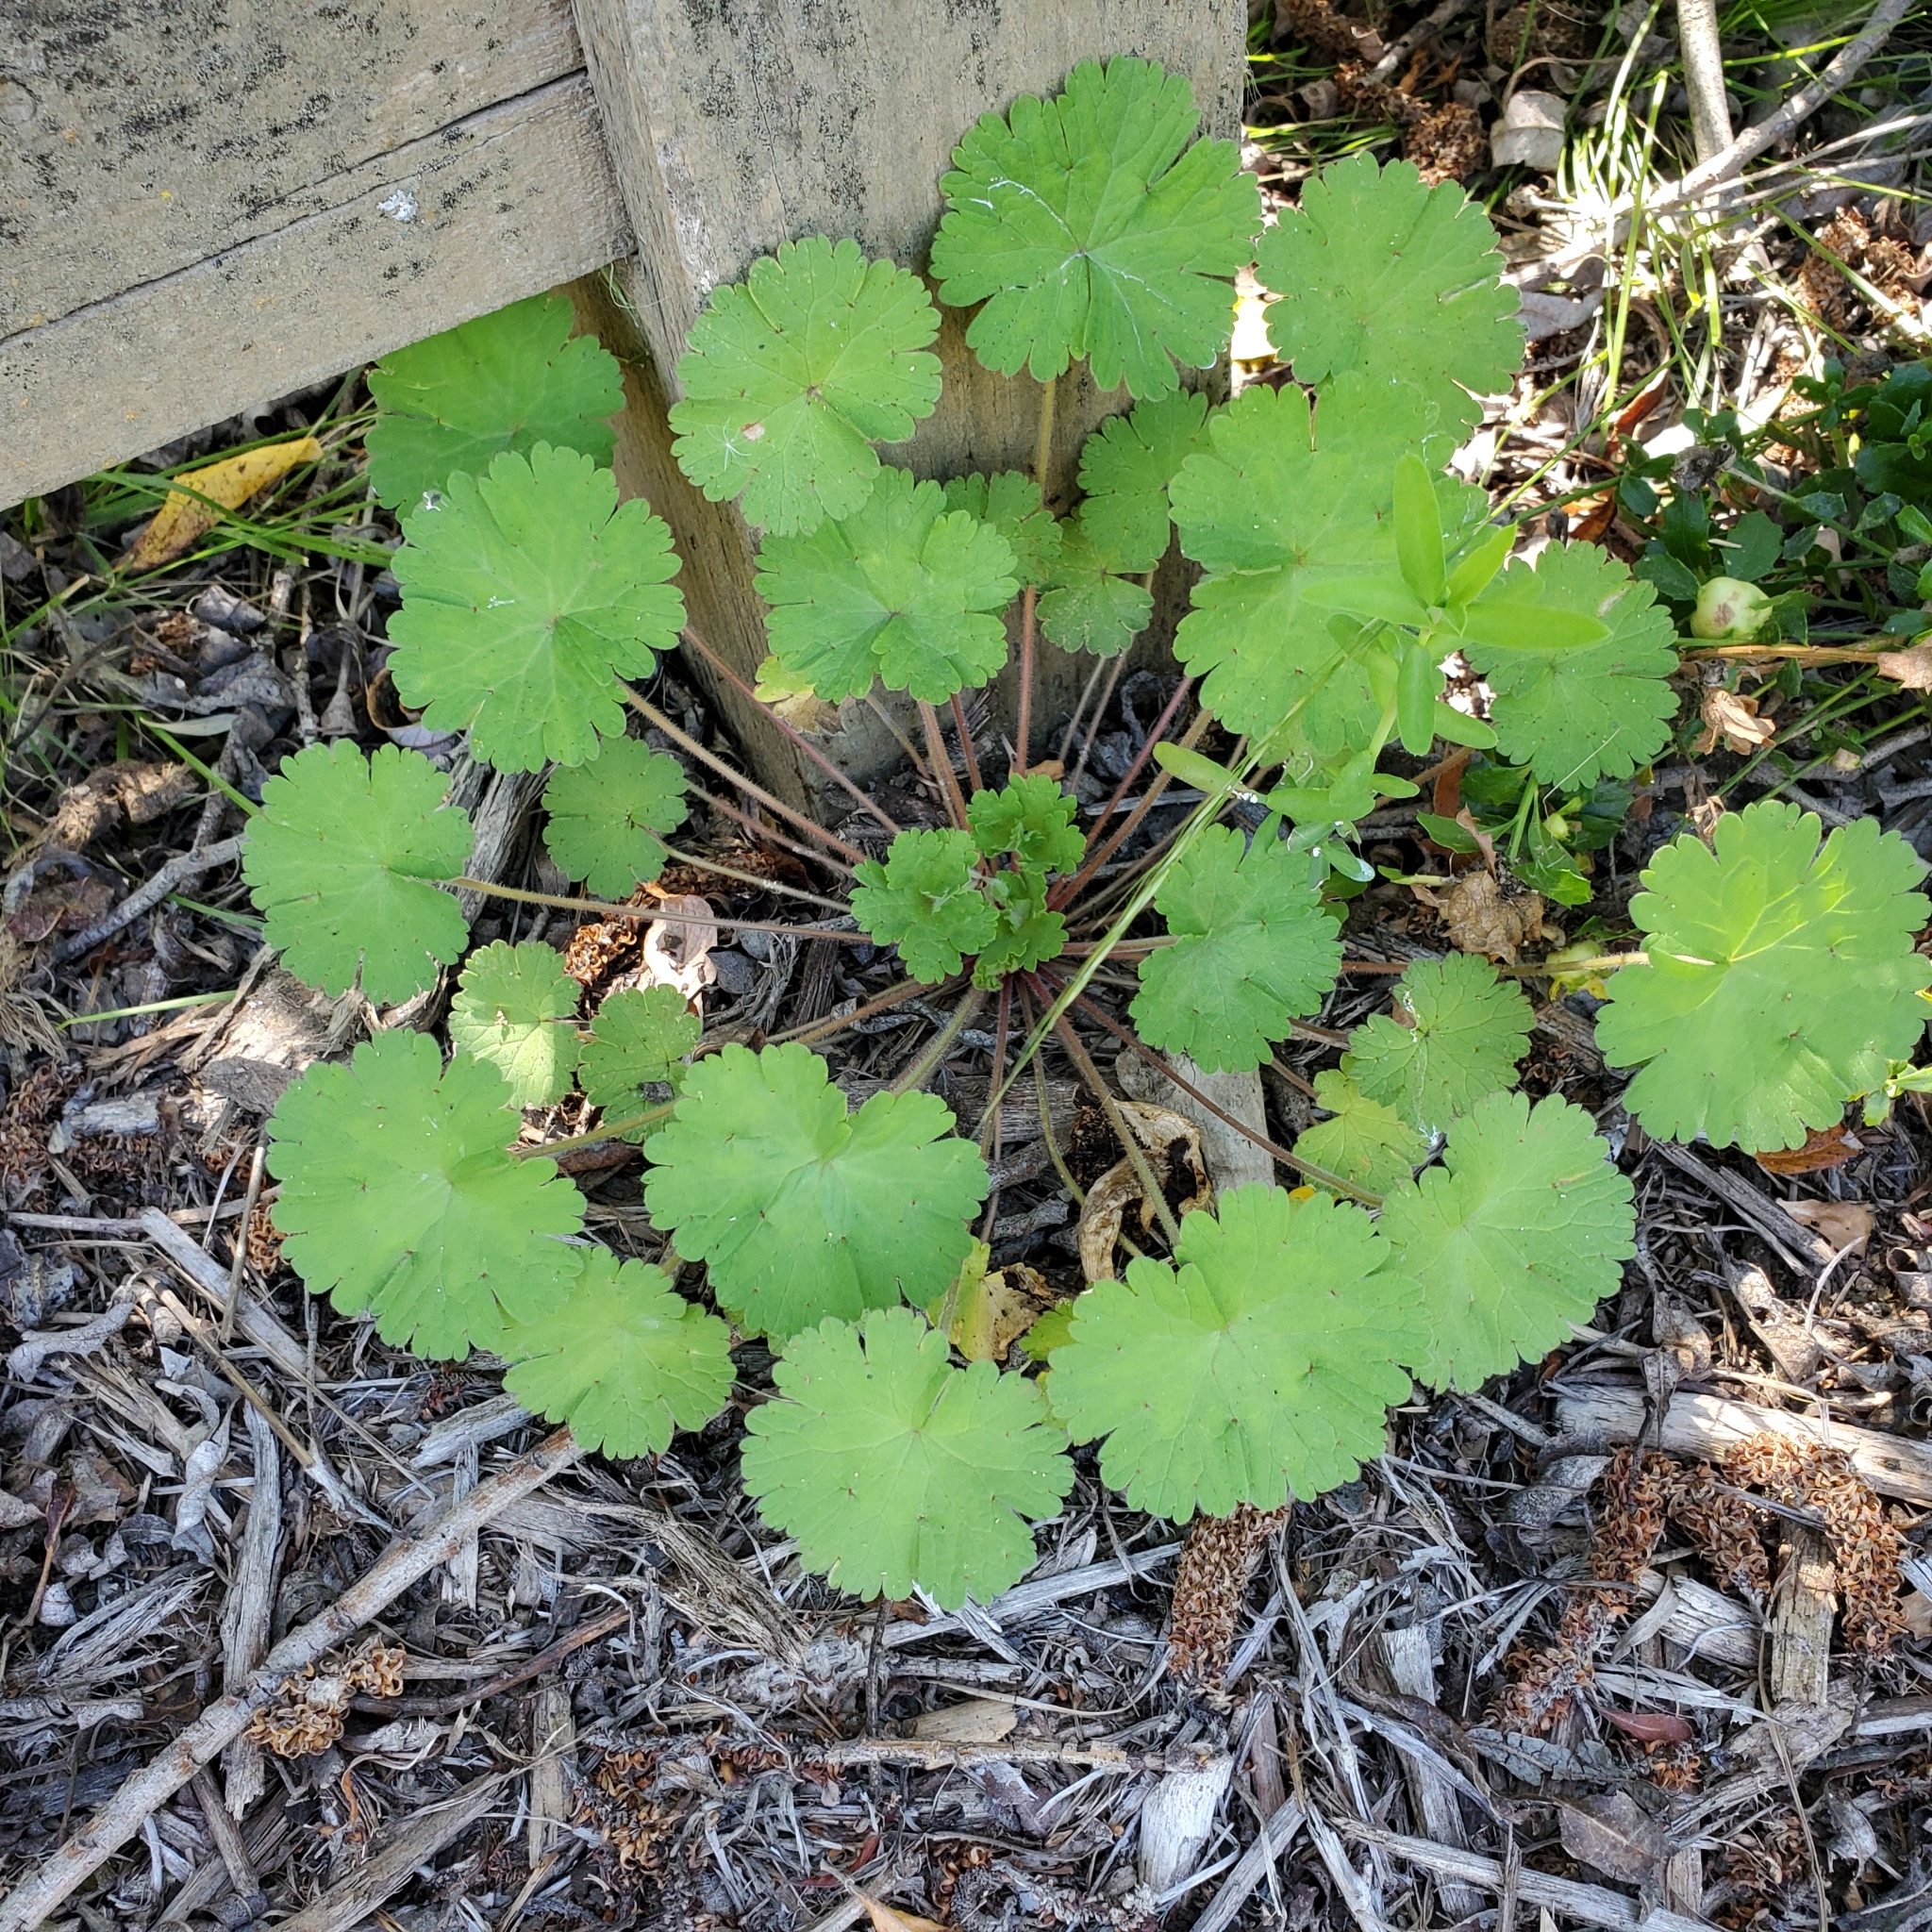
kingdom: Plantae
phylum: Tracheophyta
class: Magnoliopsida
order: Geraniales
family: Geraniaceae
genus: Geranium
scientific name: Geranium
